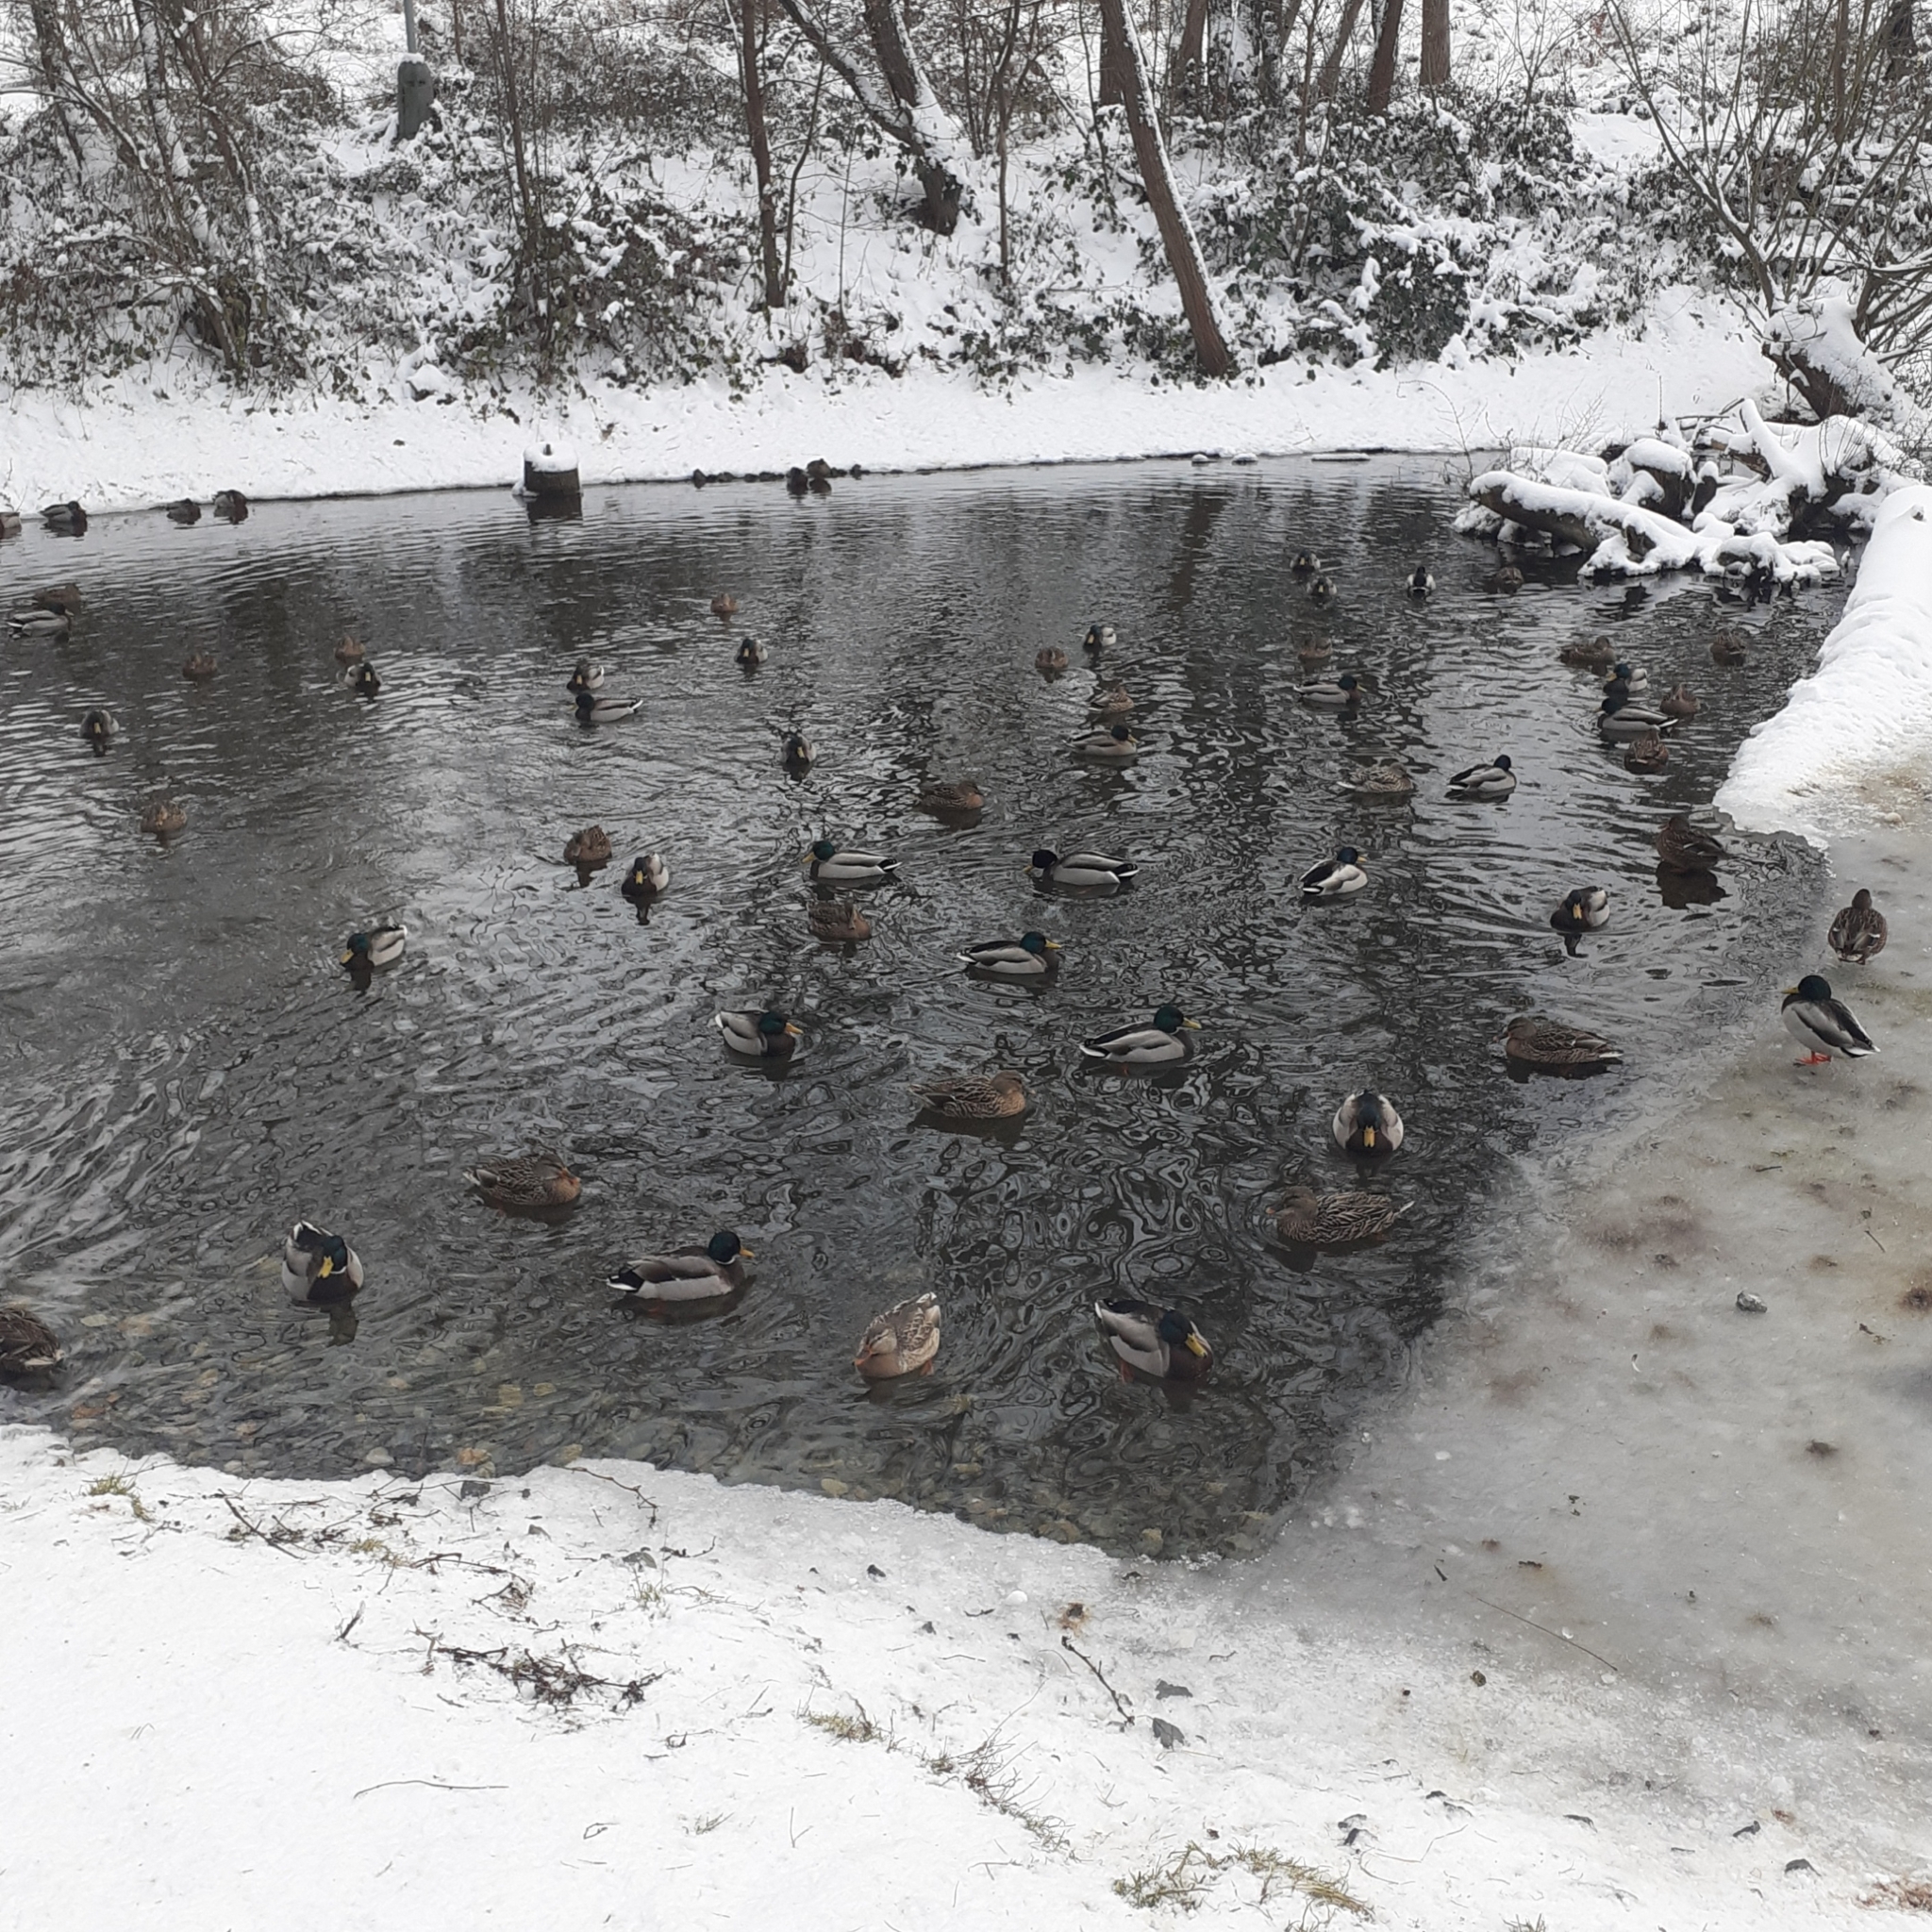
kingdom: Animalia
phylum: Chordata
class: Aves
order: Anseriformes
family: Anatidae
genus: Anas
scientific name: Anas platyrhynchos
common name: Mallard
